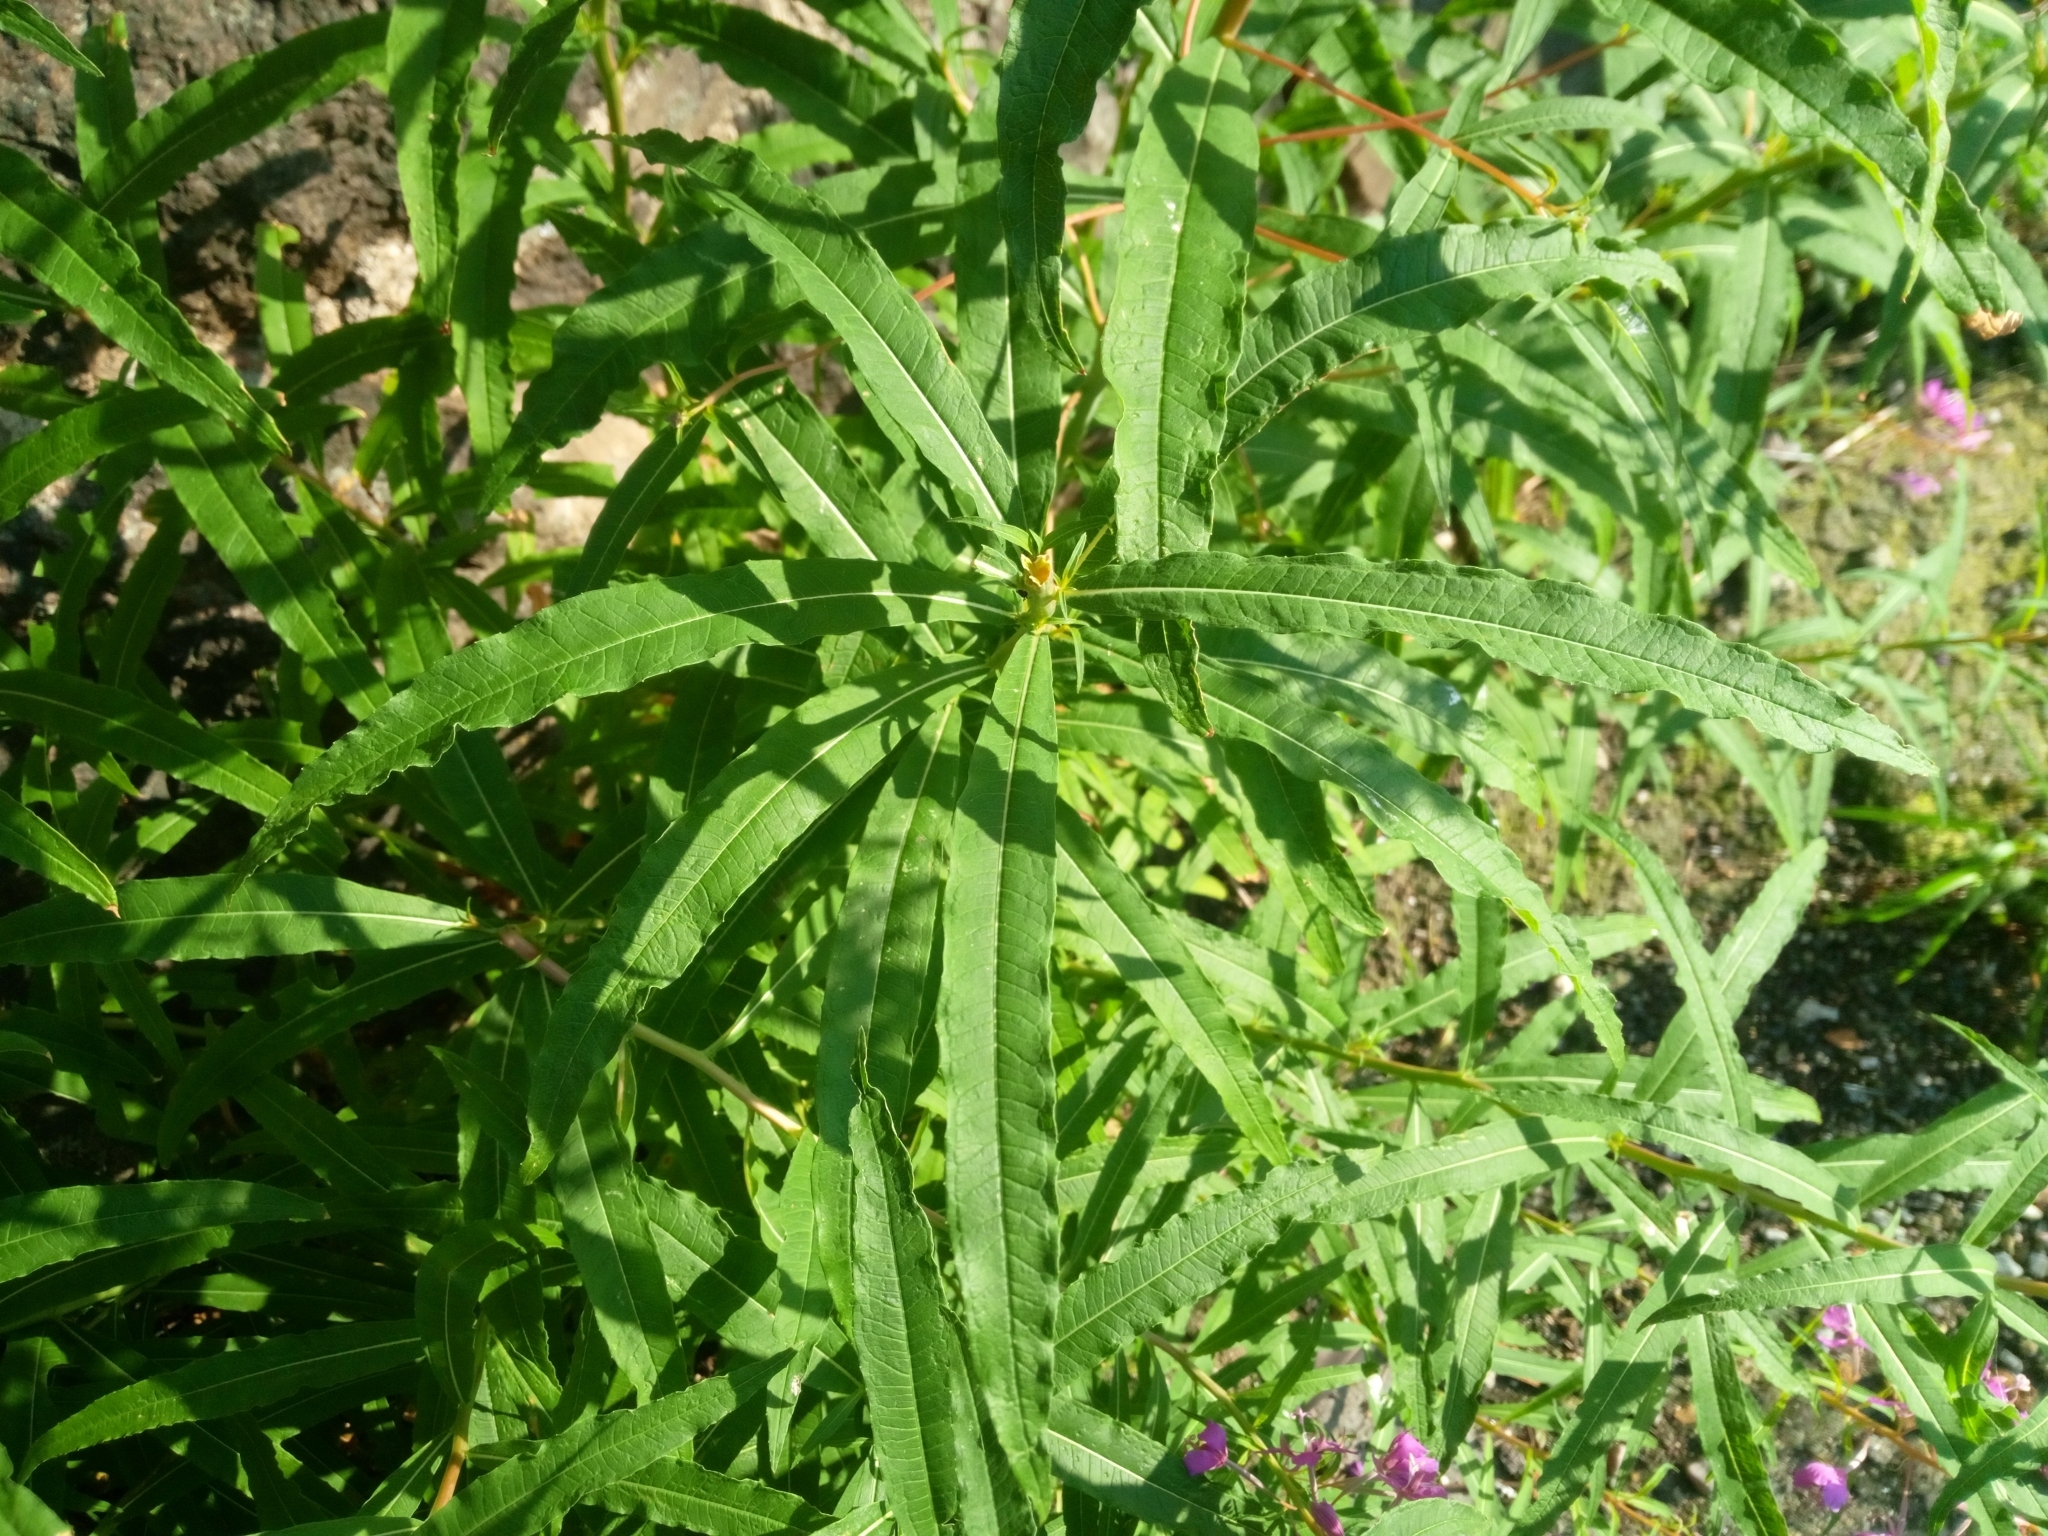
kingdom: Plantae
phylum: Tracheophyta
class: Magnoliopsida
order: Myrtales
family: Onagraceae
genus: Chamaenerion
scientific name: Chamaenerion angustifolium
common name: Fireweed
